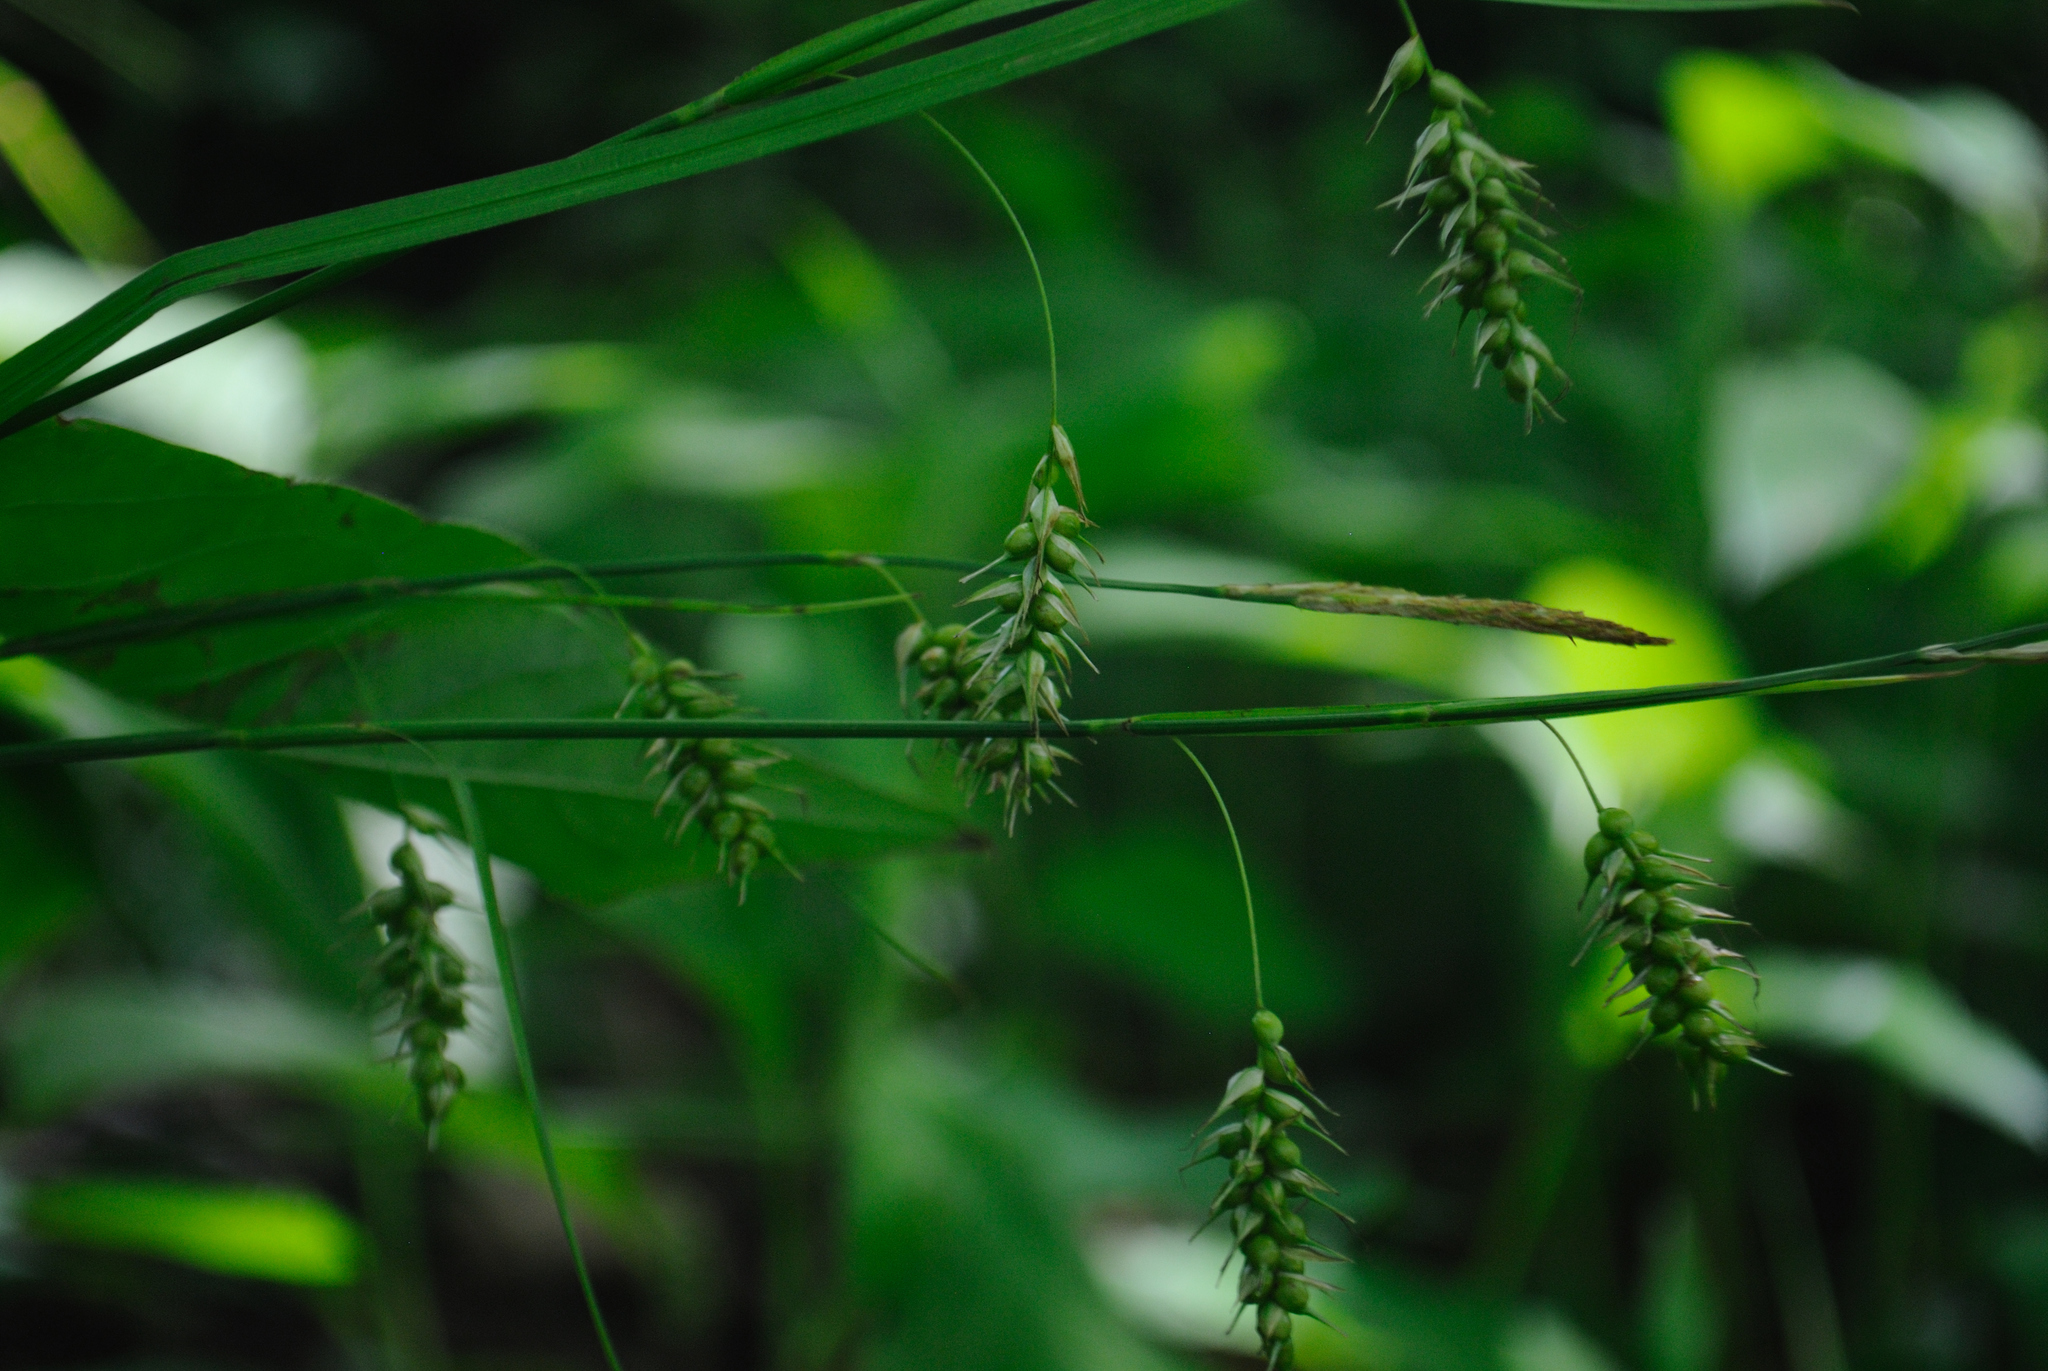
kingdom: Plantae
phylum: Tracheophyta
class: Liliopsida
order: Poales
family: Cyperaceae
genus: Carex
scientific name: Carex sprengelii
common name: Long-beaked sedge
